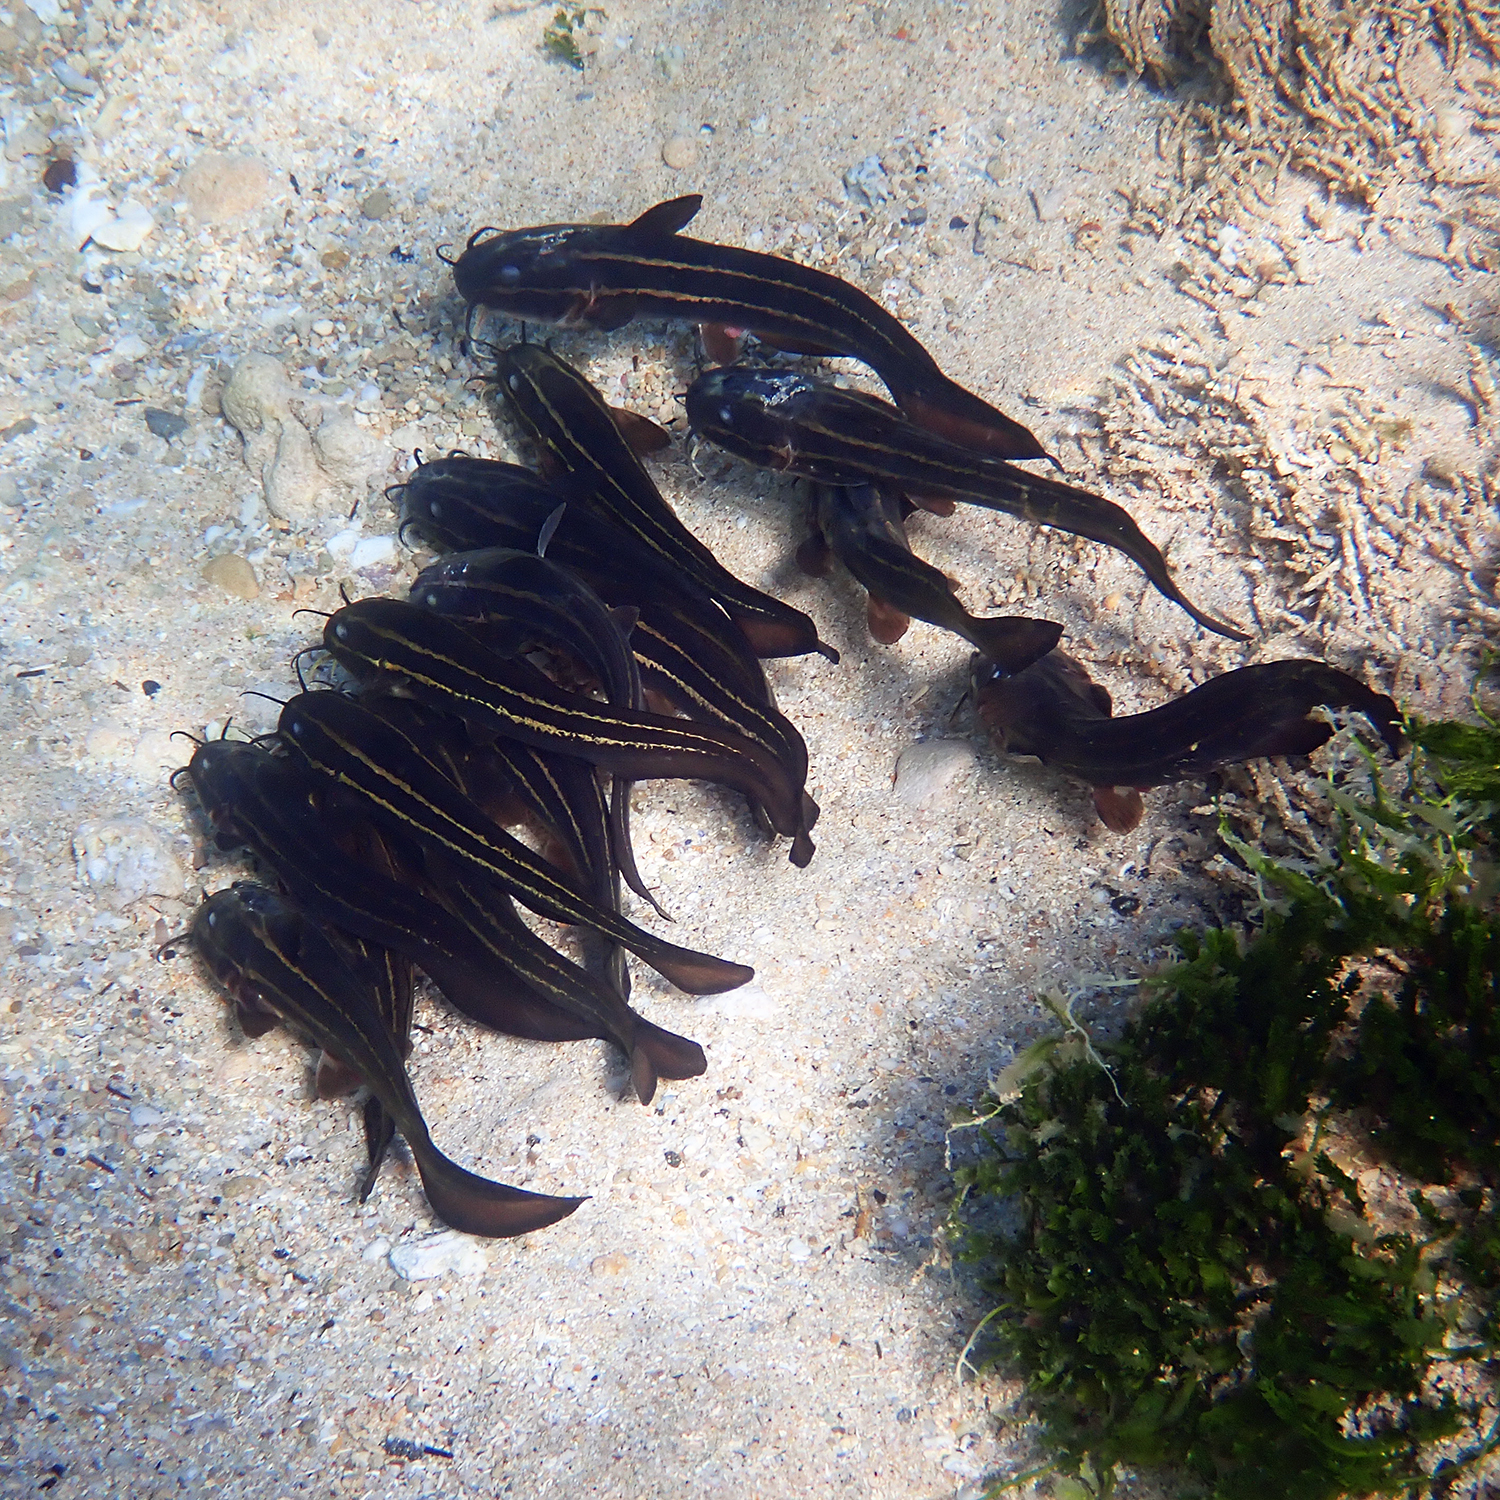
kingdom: Animalia
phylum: Chordata
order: Siluriformes
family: Plotosidae
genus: Plotosus
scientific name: Plotosus lineatus
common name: Striped eel catfish
